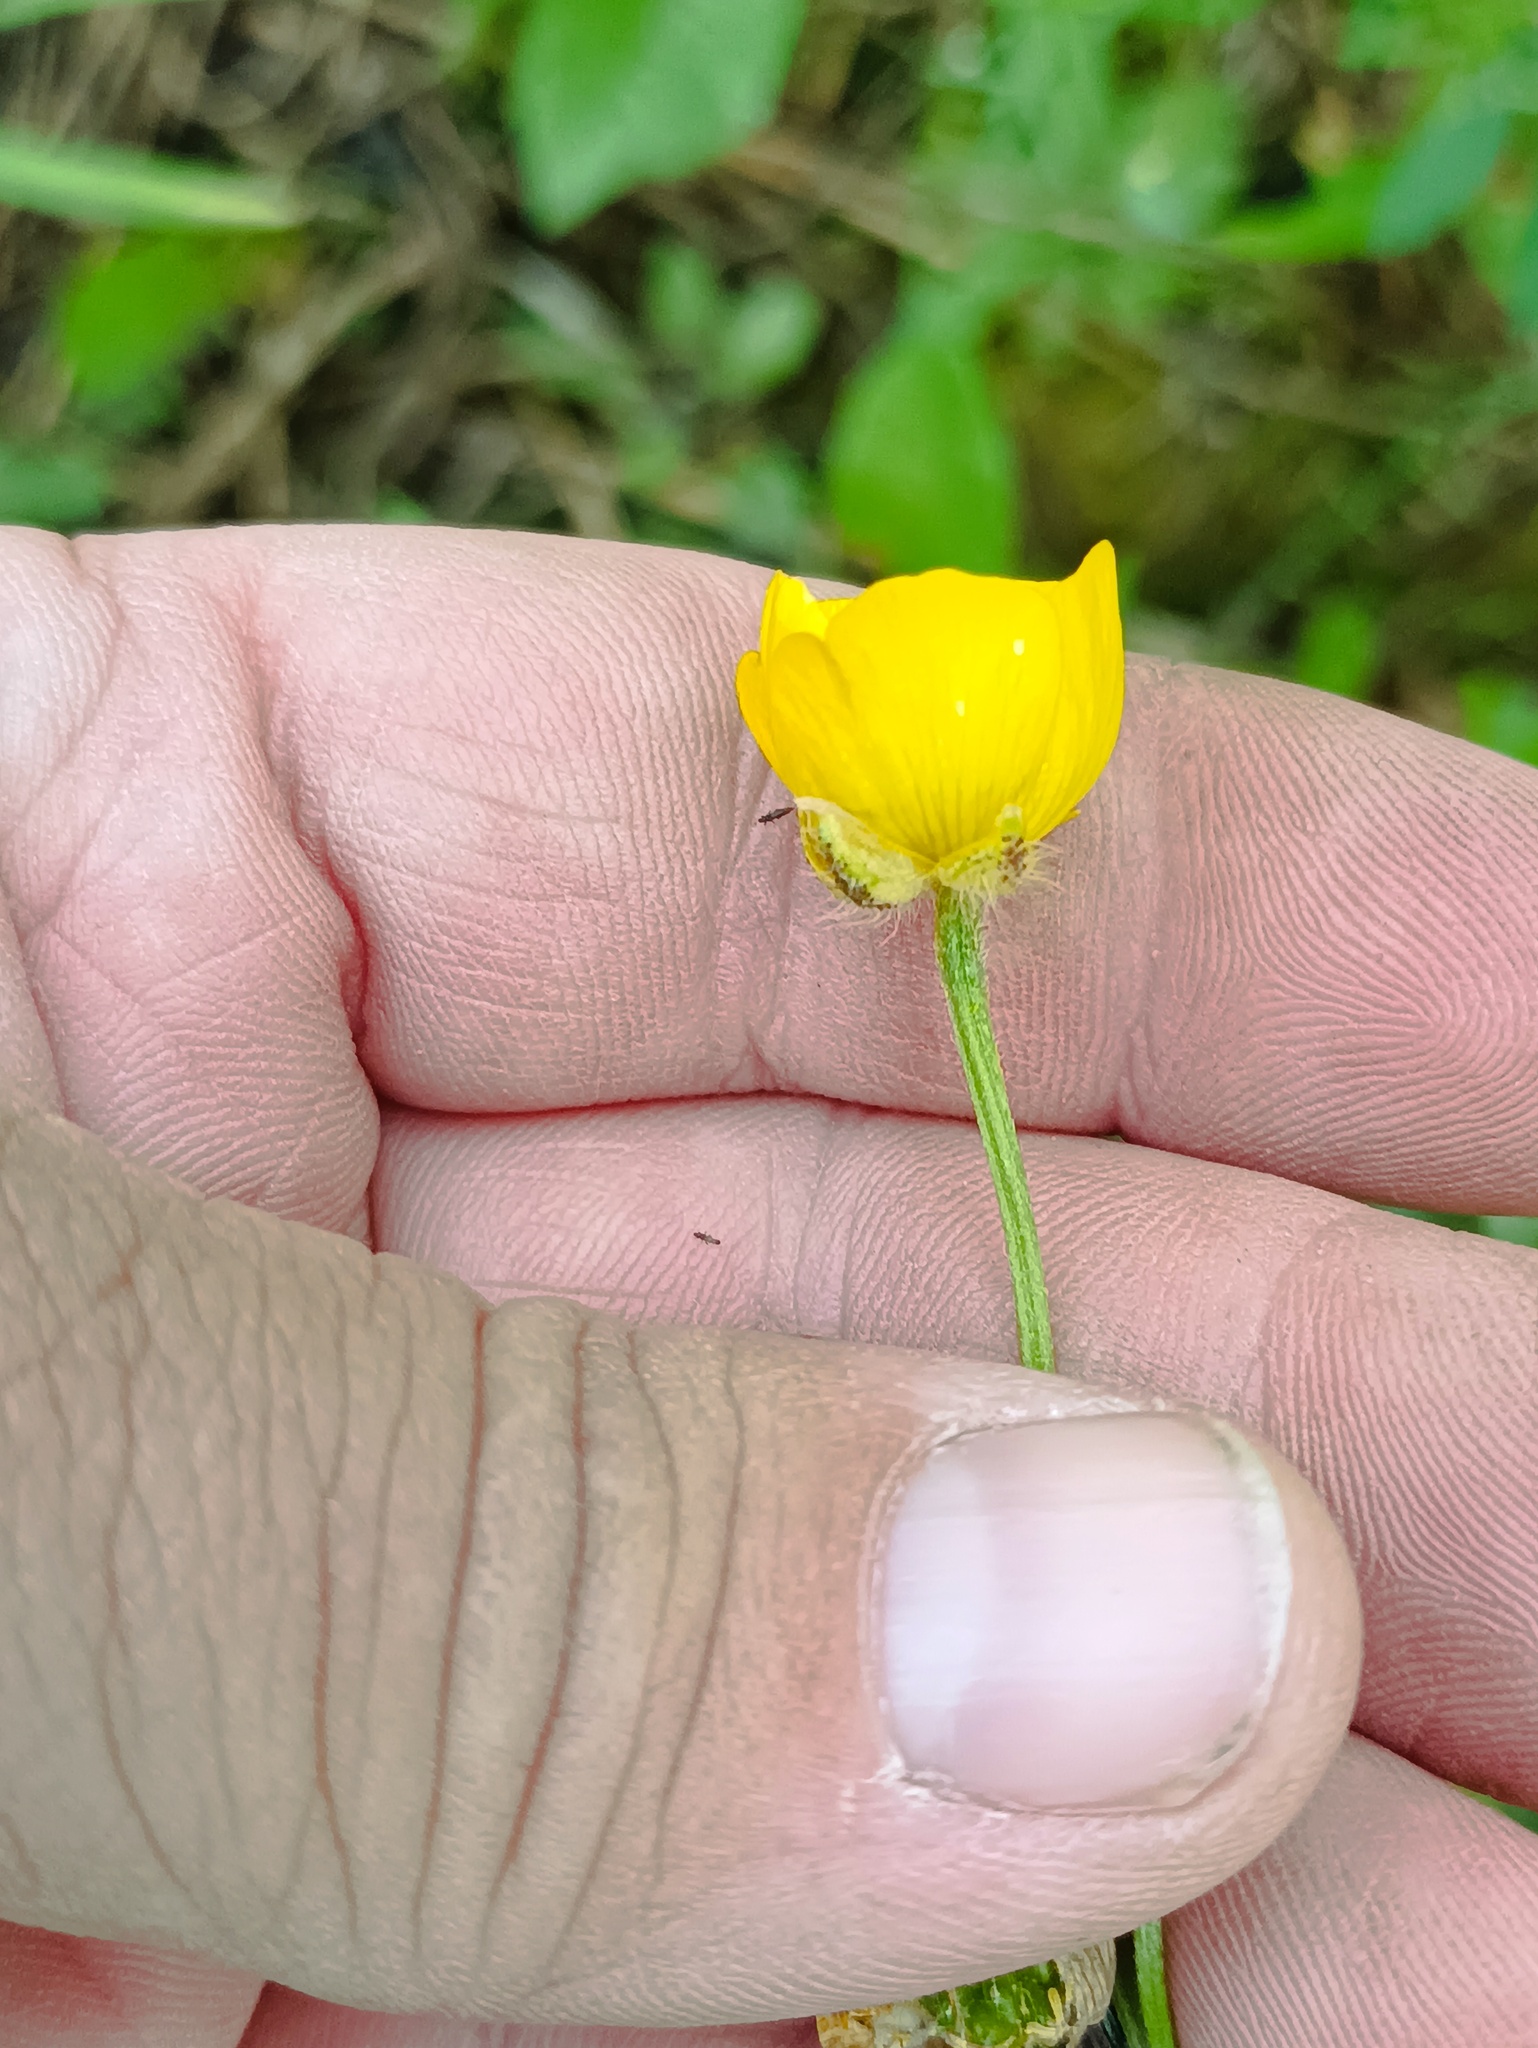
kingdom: Plantae
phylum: Tracheophyta
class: Magnoliopsida
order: Ranunculales
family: Ranunculaceae
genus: Ranunculus
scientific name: Ranunculus polyanthemos
